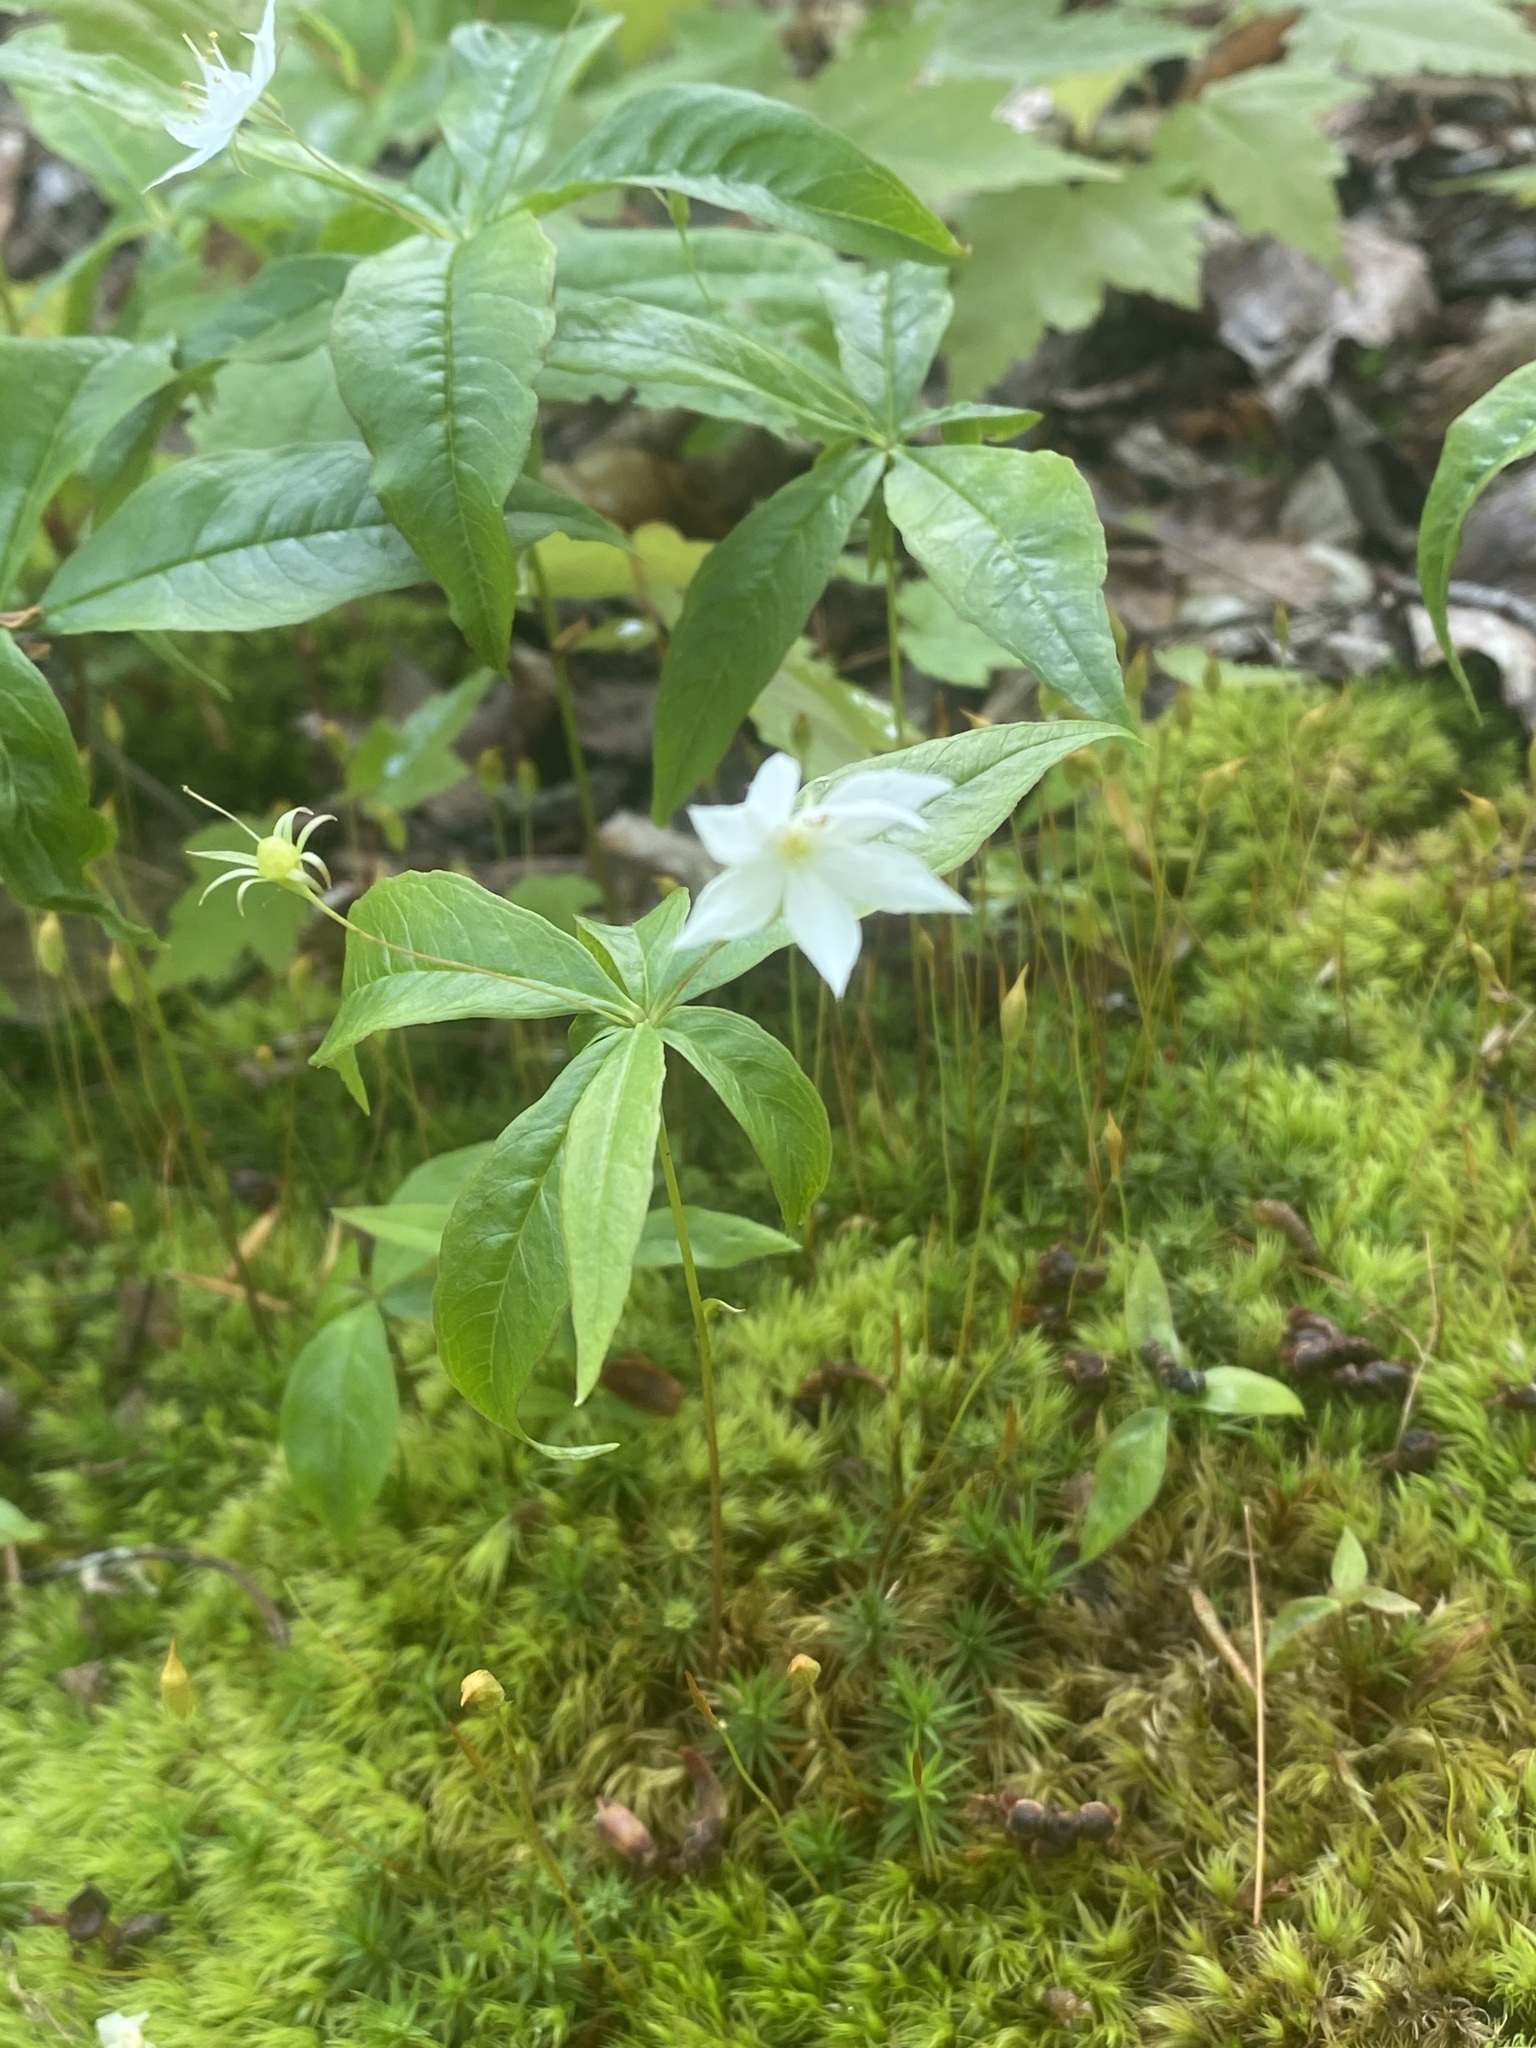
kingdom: Plantae
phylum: Tracheophyta
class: Magnoliopsida
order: Ericales
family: Primulaceae
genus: Lysimachia
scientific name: Lysimachia borealis
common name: American starflower
